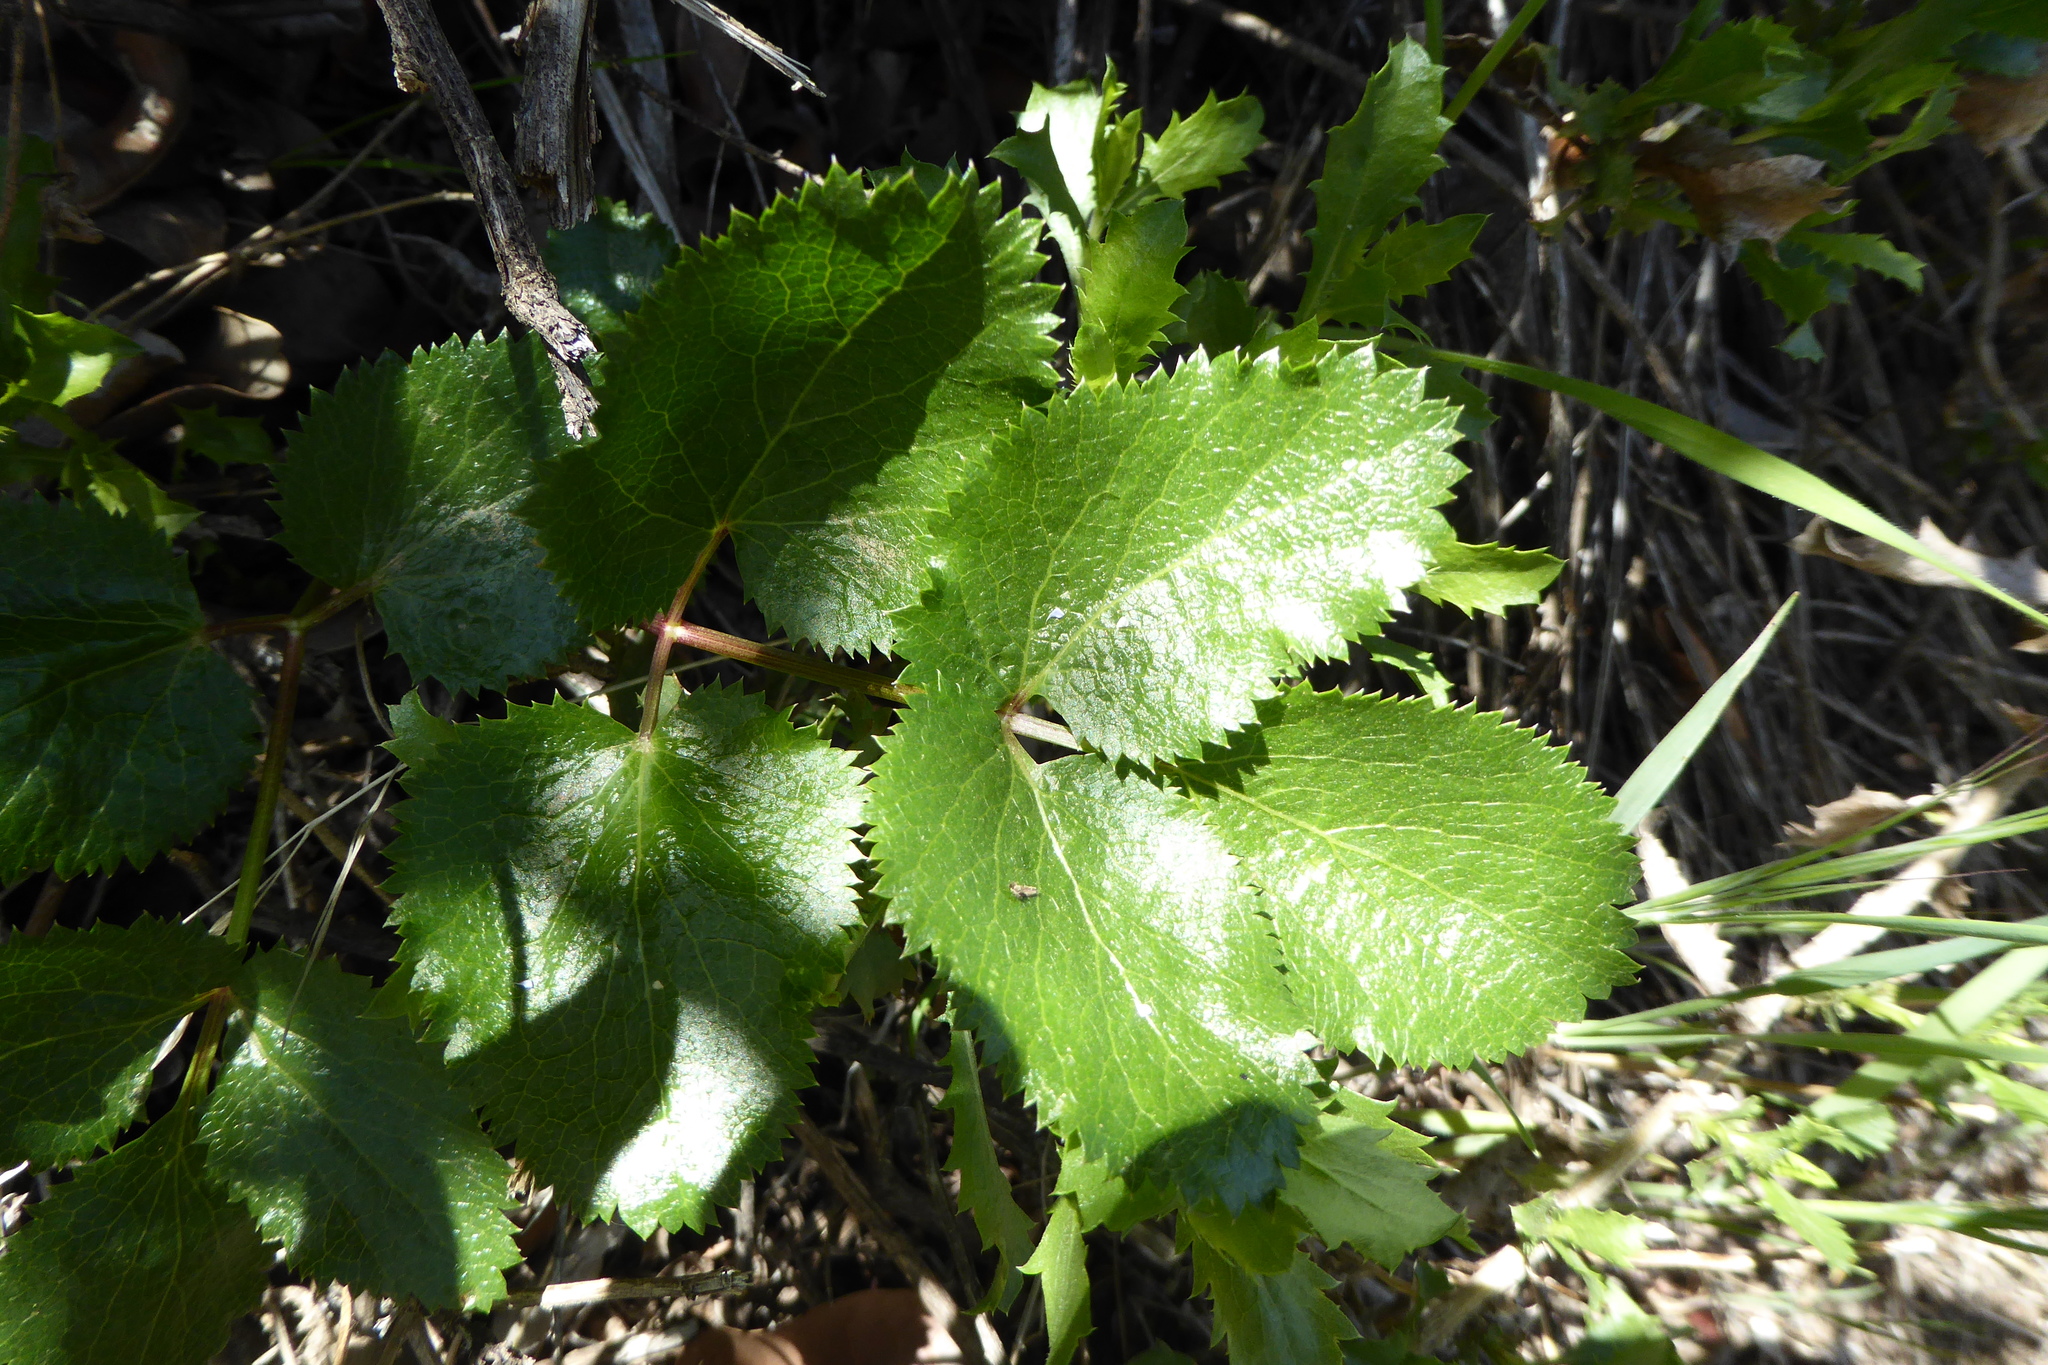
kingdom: Plantae
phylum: Tracheophyta
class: Magnoliopsida
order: Apiales
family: Apiaceae
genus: Tauschia
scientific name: Tauschia arguta
